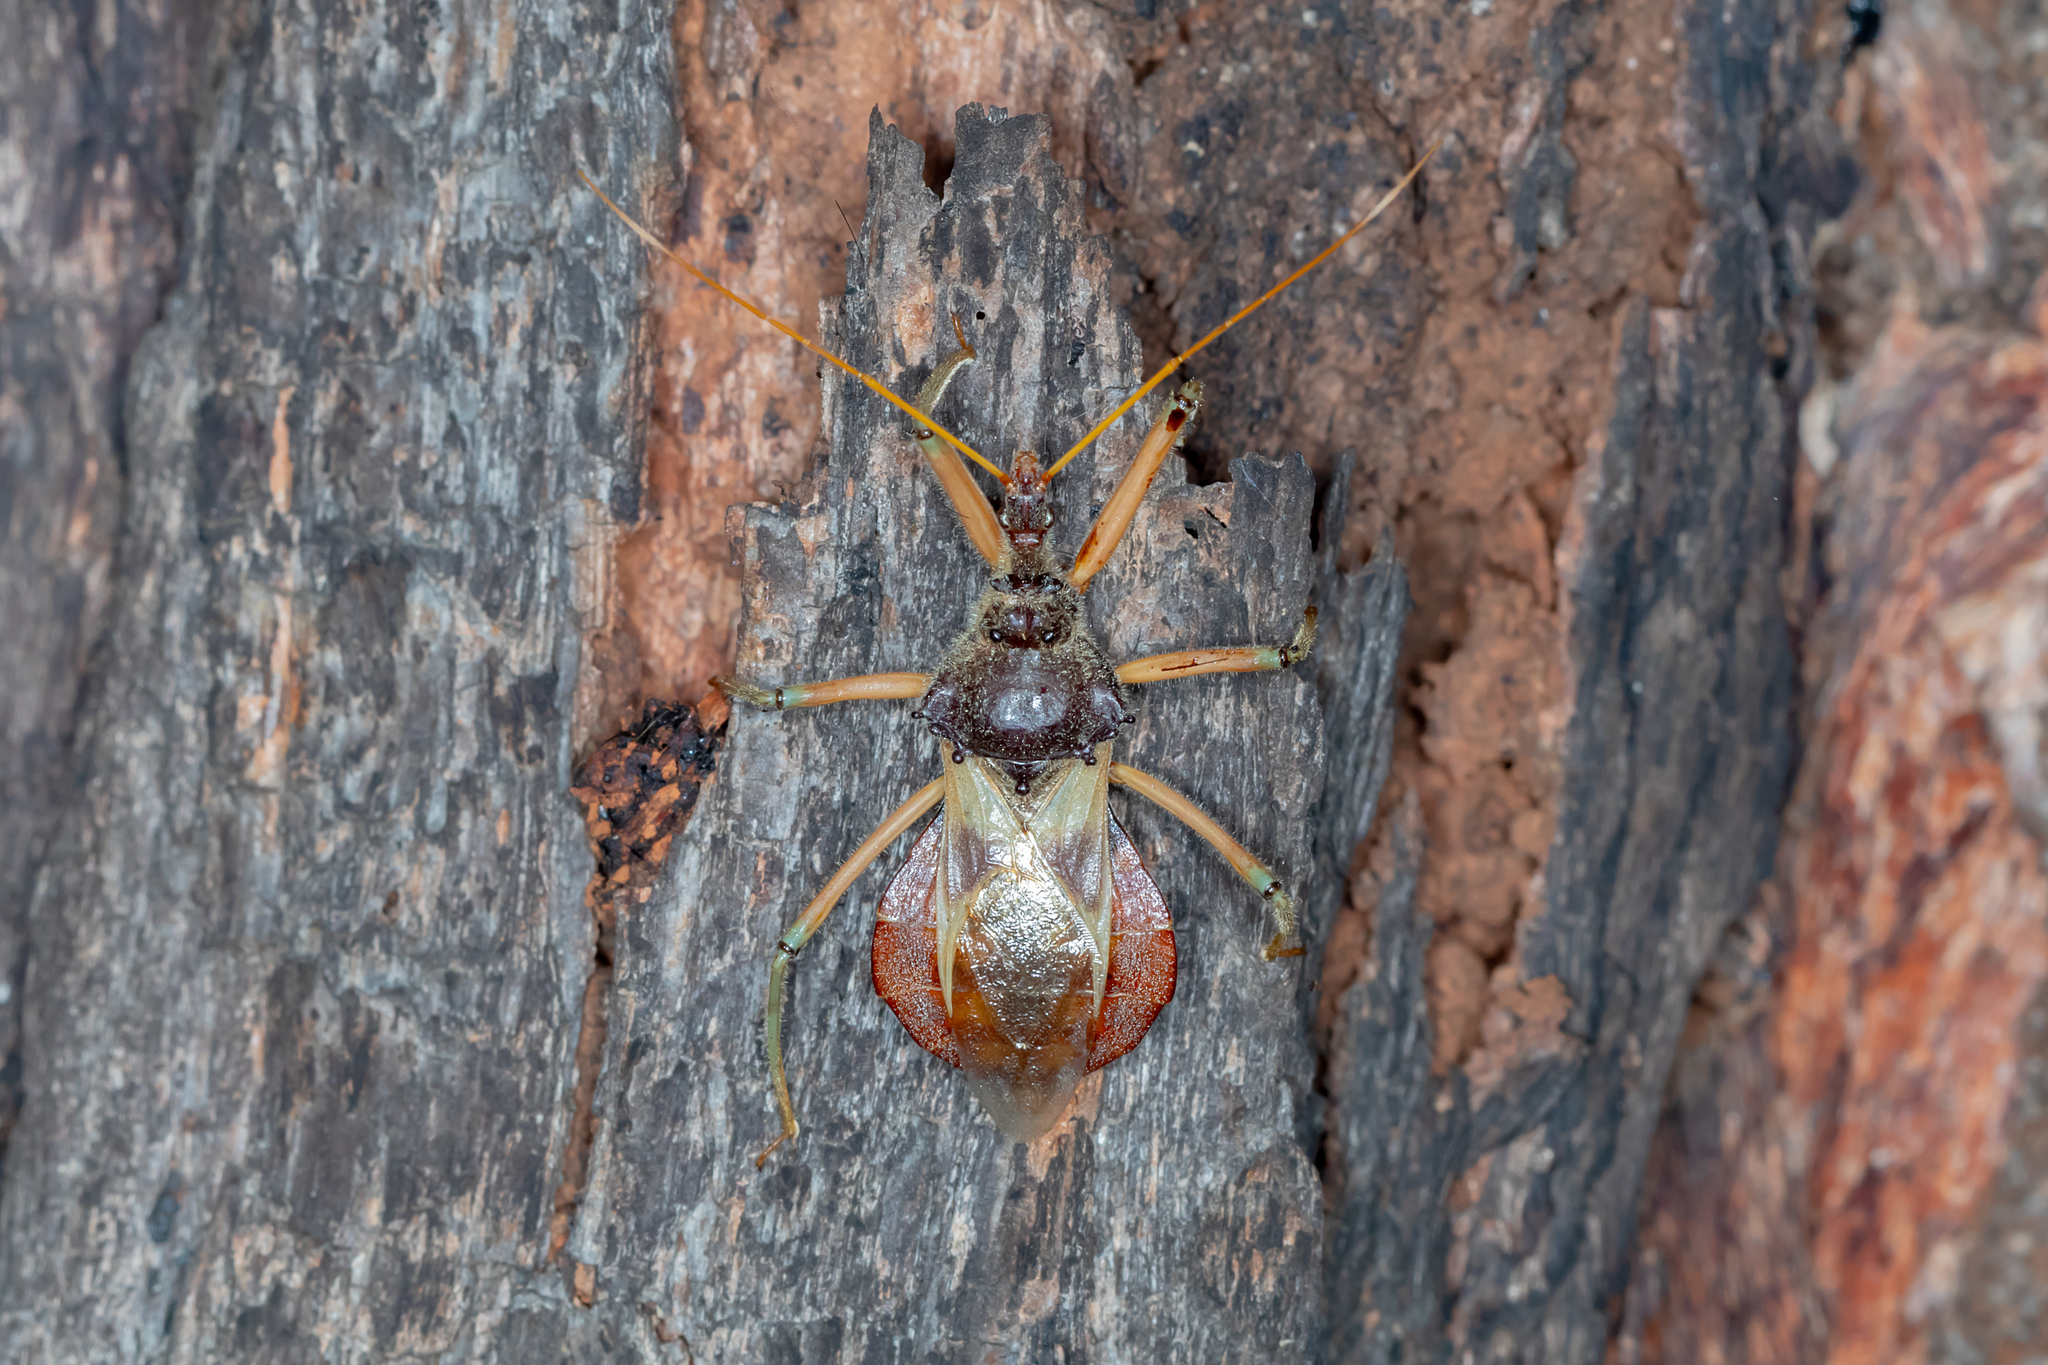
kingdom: Animalia
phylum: Arthropoda
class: Insecta
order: Hemiptera
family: Reduviidae
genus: Pristhesancus
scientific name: Pristhesancus plagipennis
